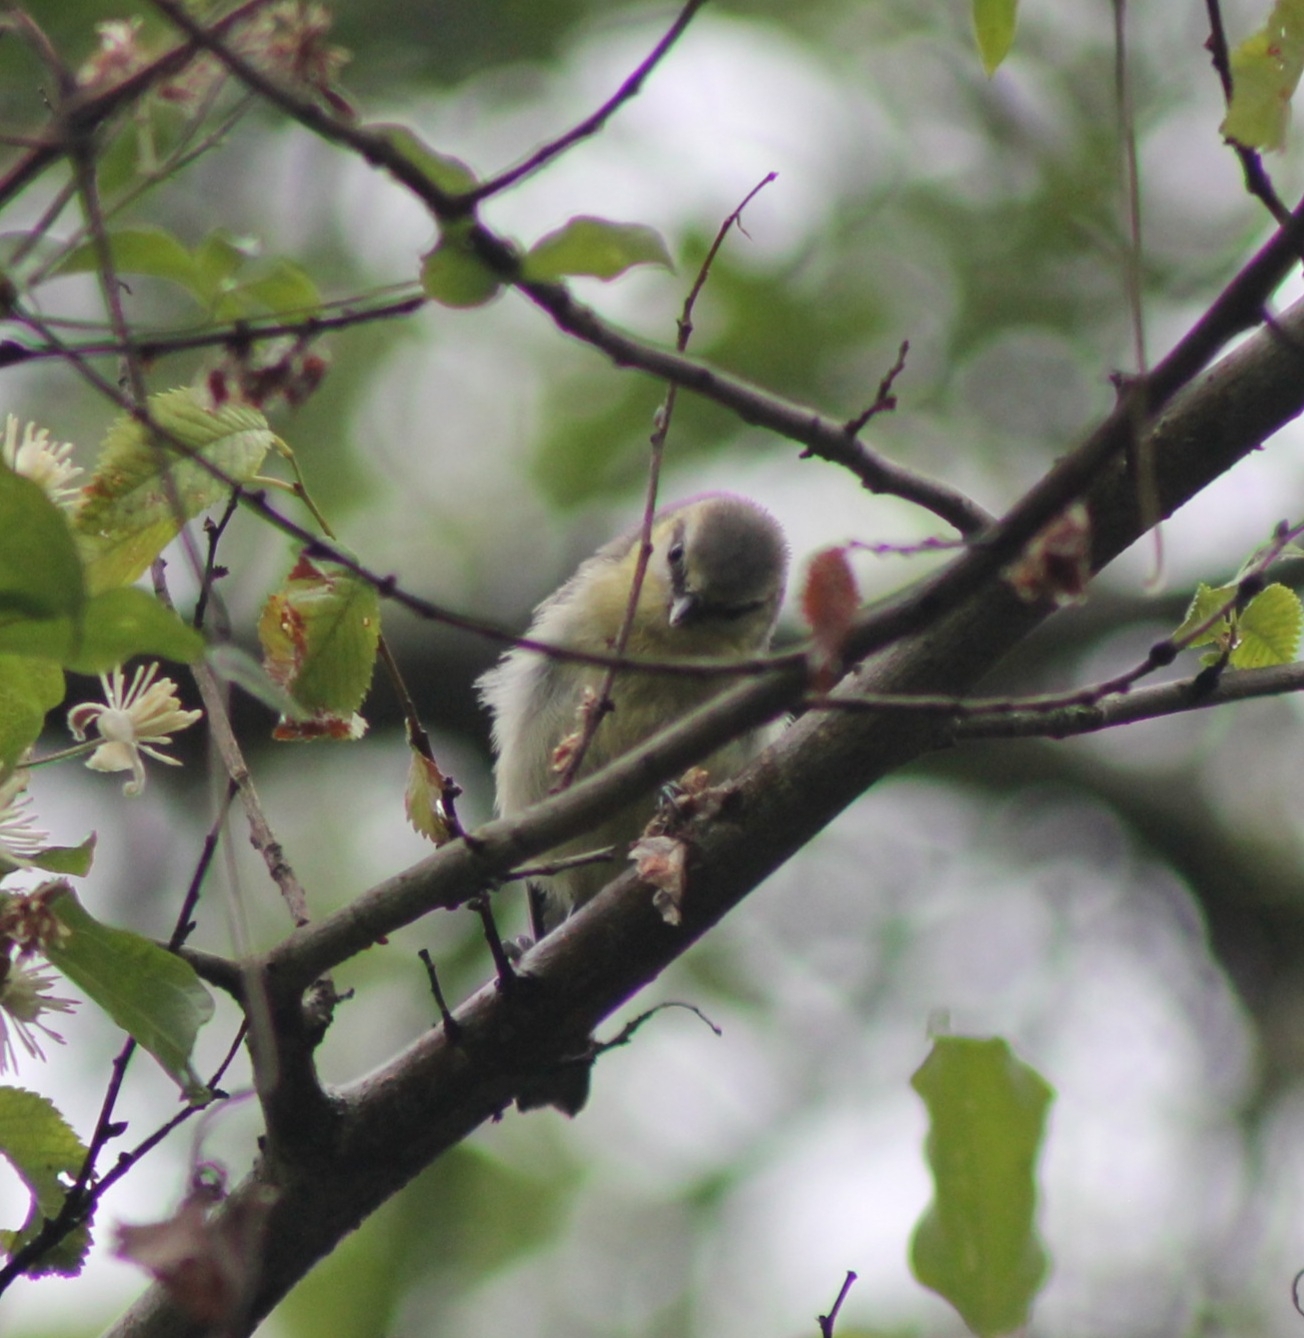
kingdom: Animalia
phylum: Chordata
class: Aves
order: Passeriformes
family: Paridae
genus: Cyanistes
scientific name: Cyanistes caeruleus
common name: Eurasian blue tit
